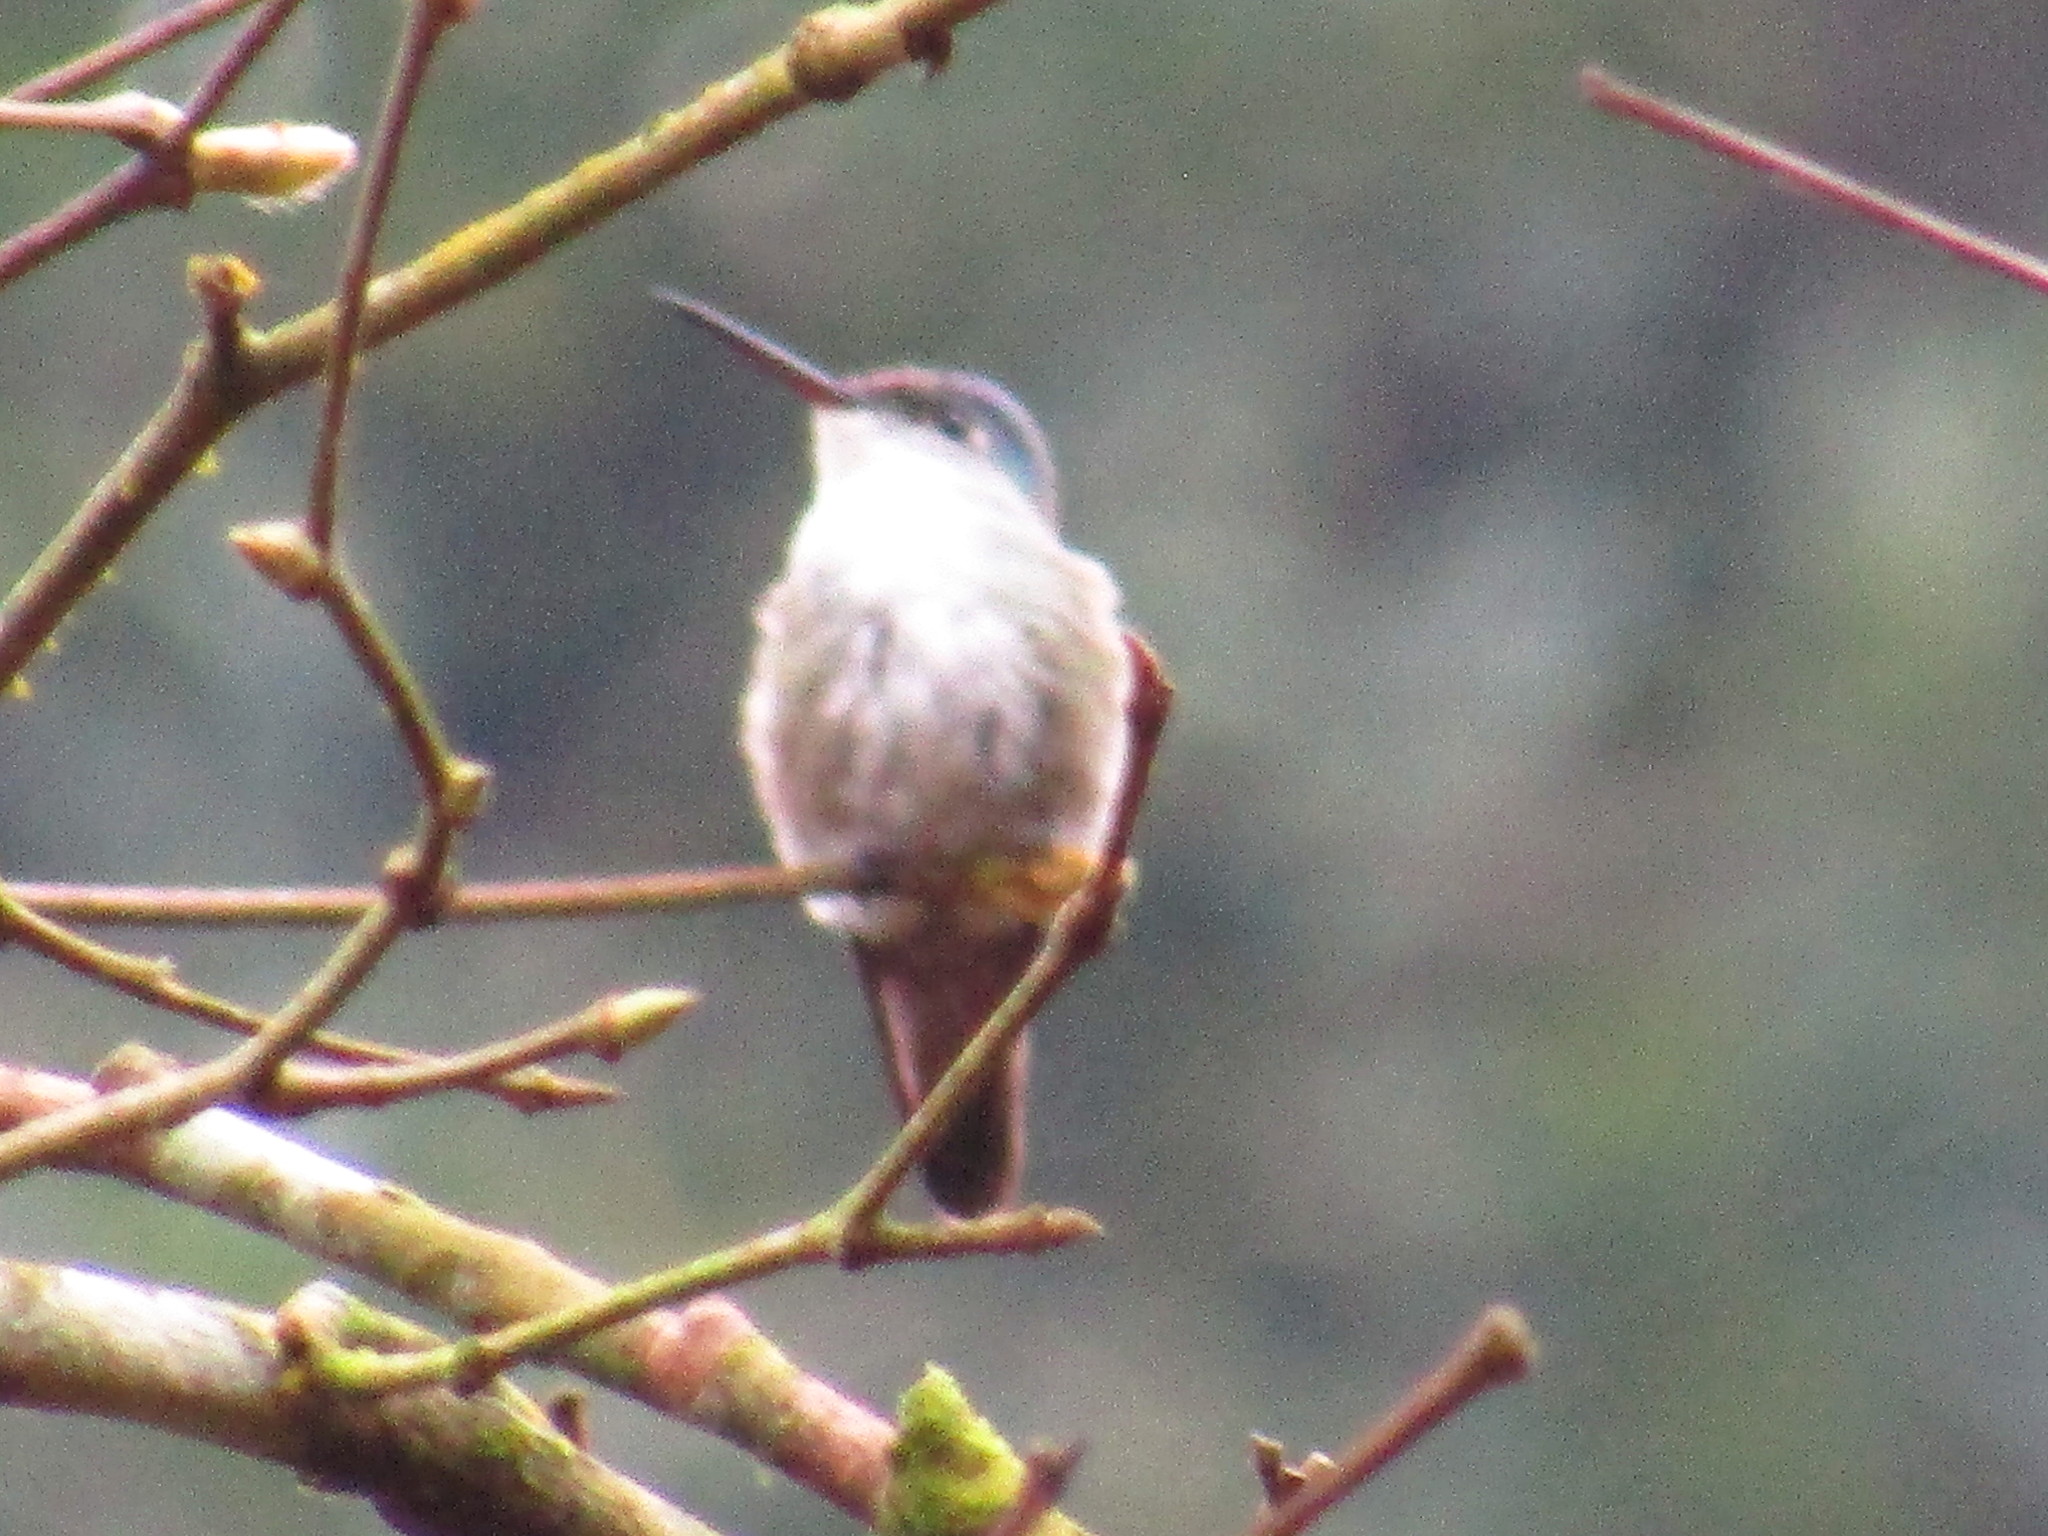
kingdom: Animalia
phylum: Chordata
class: Aves
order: Apodiformes
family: Trochilidae
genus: Saucerottia
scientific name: Saucerottia cyanocephala
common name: Azure-crowned hummingbird
